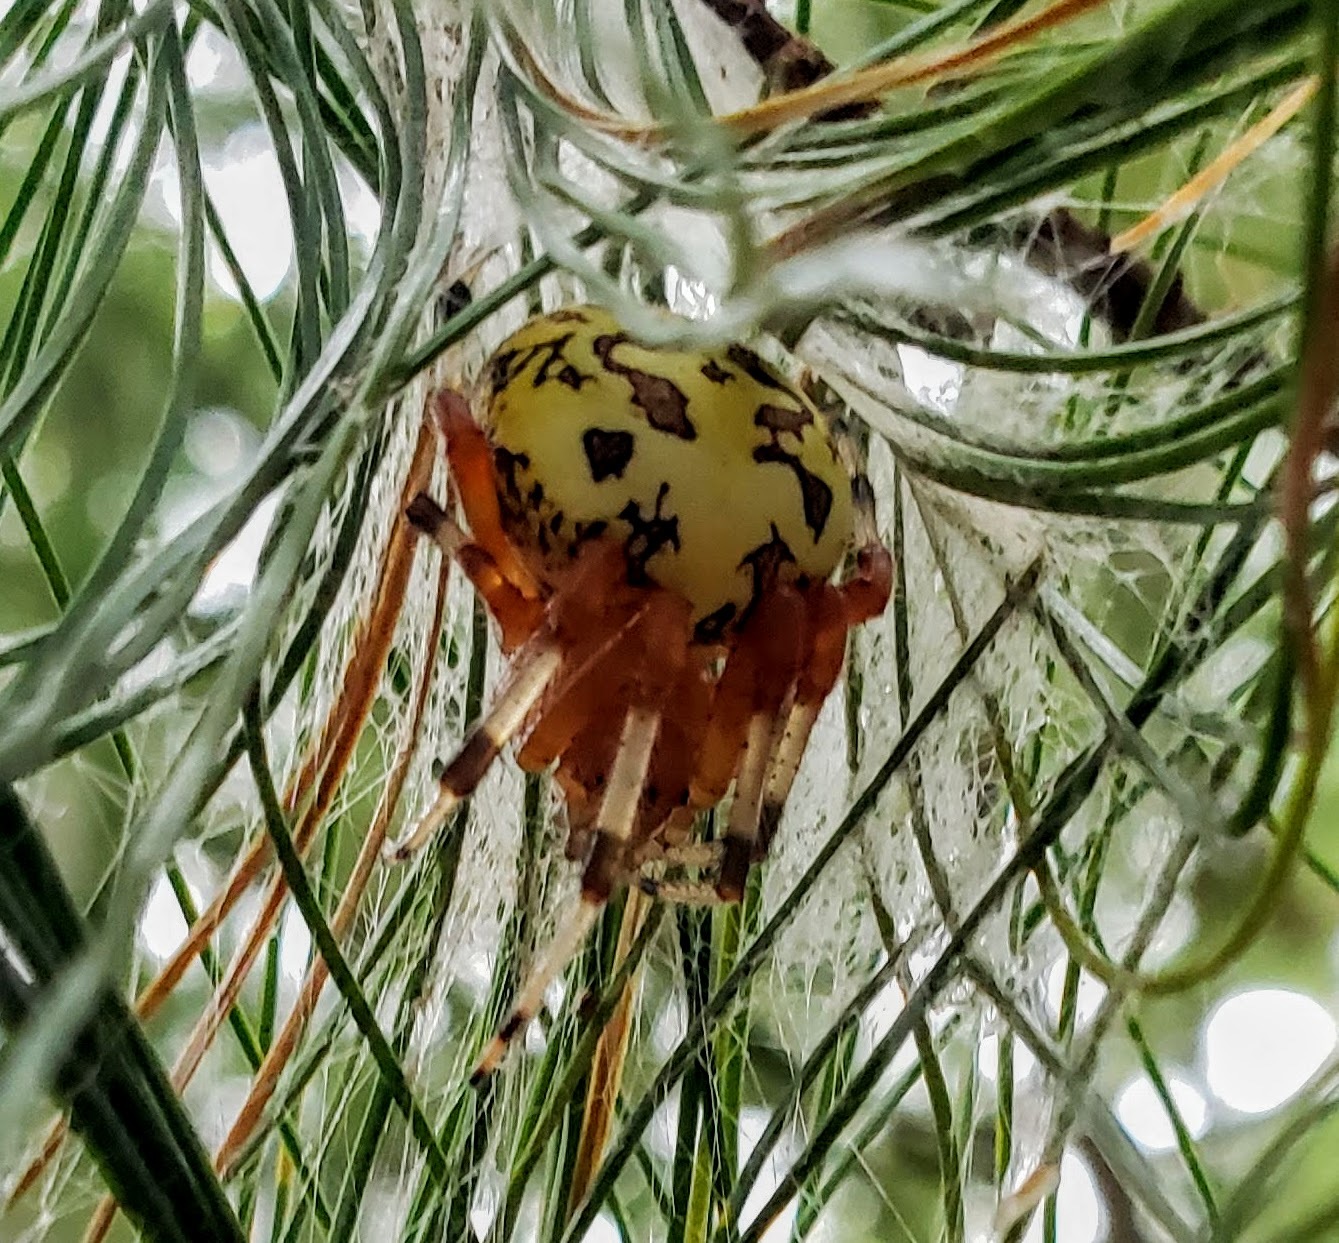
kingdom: Animalia
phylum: Arthropoda
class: Arachnida
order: Araneae
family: Araneidae
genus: Araneus
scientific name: Araneus marmoreus
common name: Marbled orbweaver
